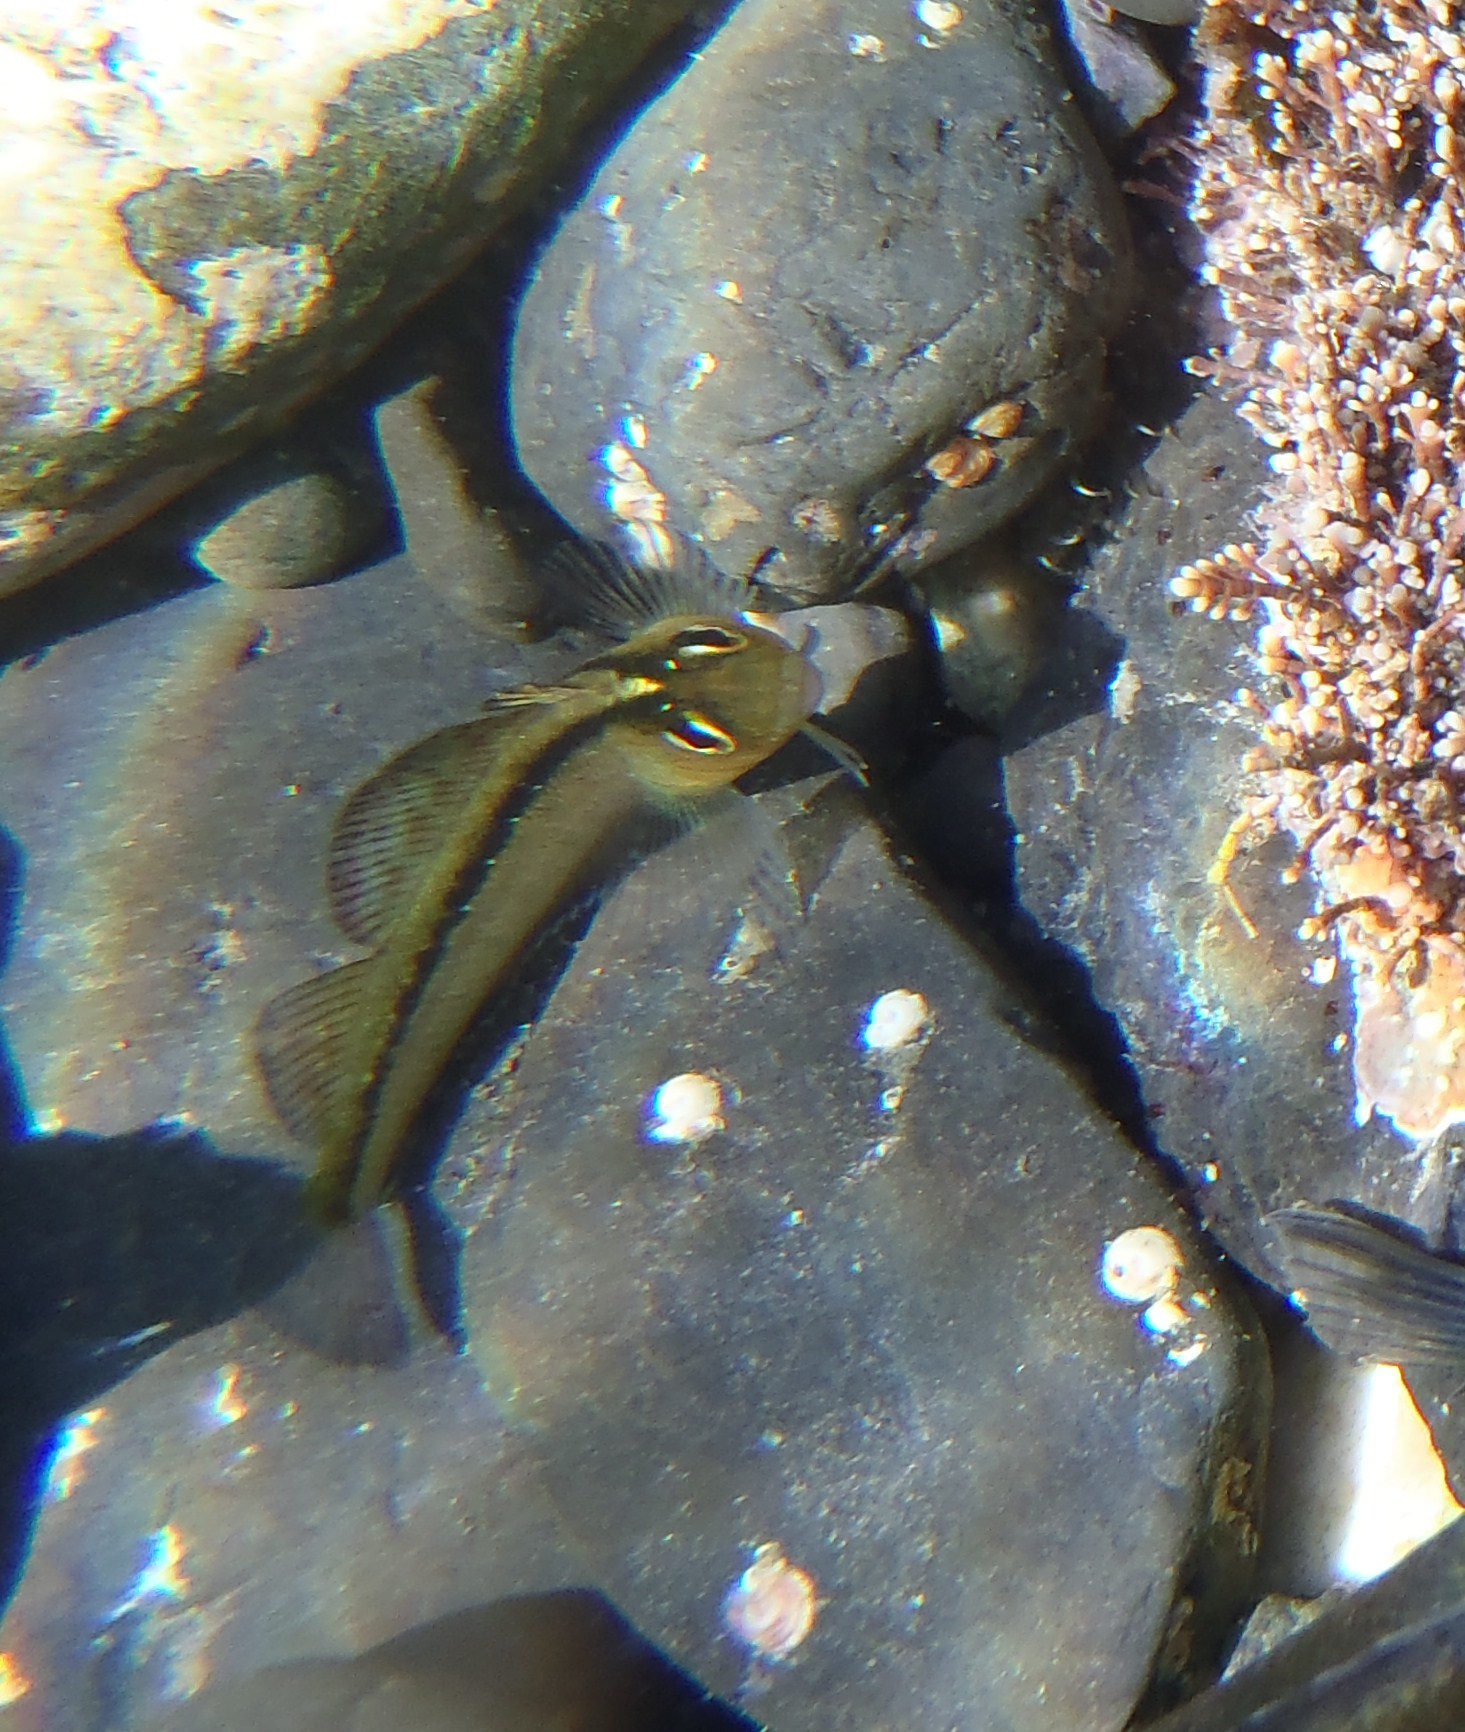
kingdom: Animalia
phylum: Chordata
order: Perciformes
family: Tripterygiidae
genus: Forsterygion
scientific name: Forsterygion lapillum
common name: Common triplefin
